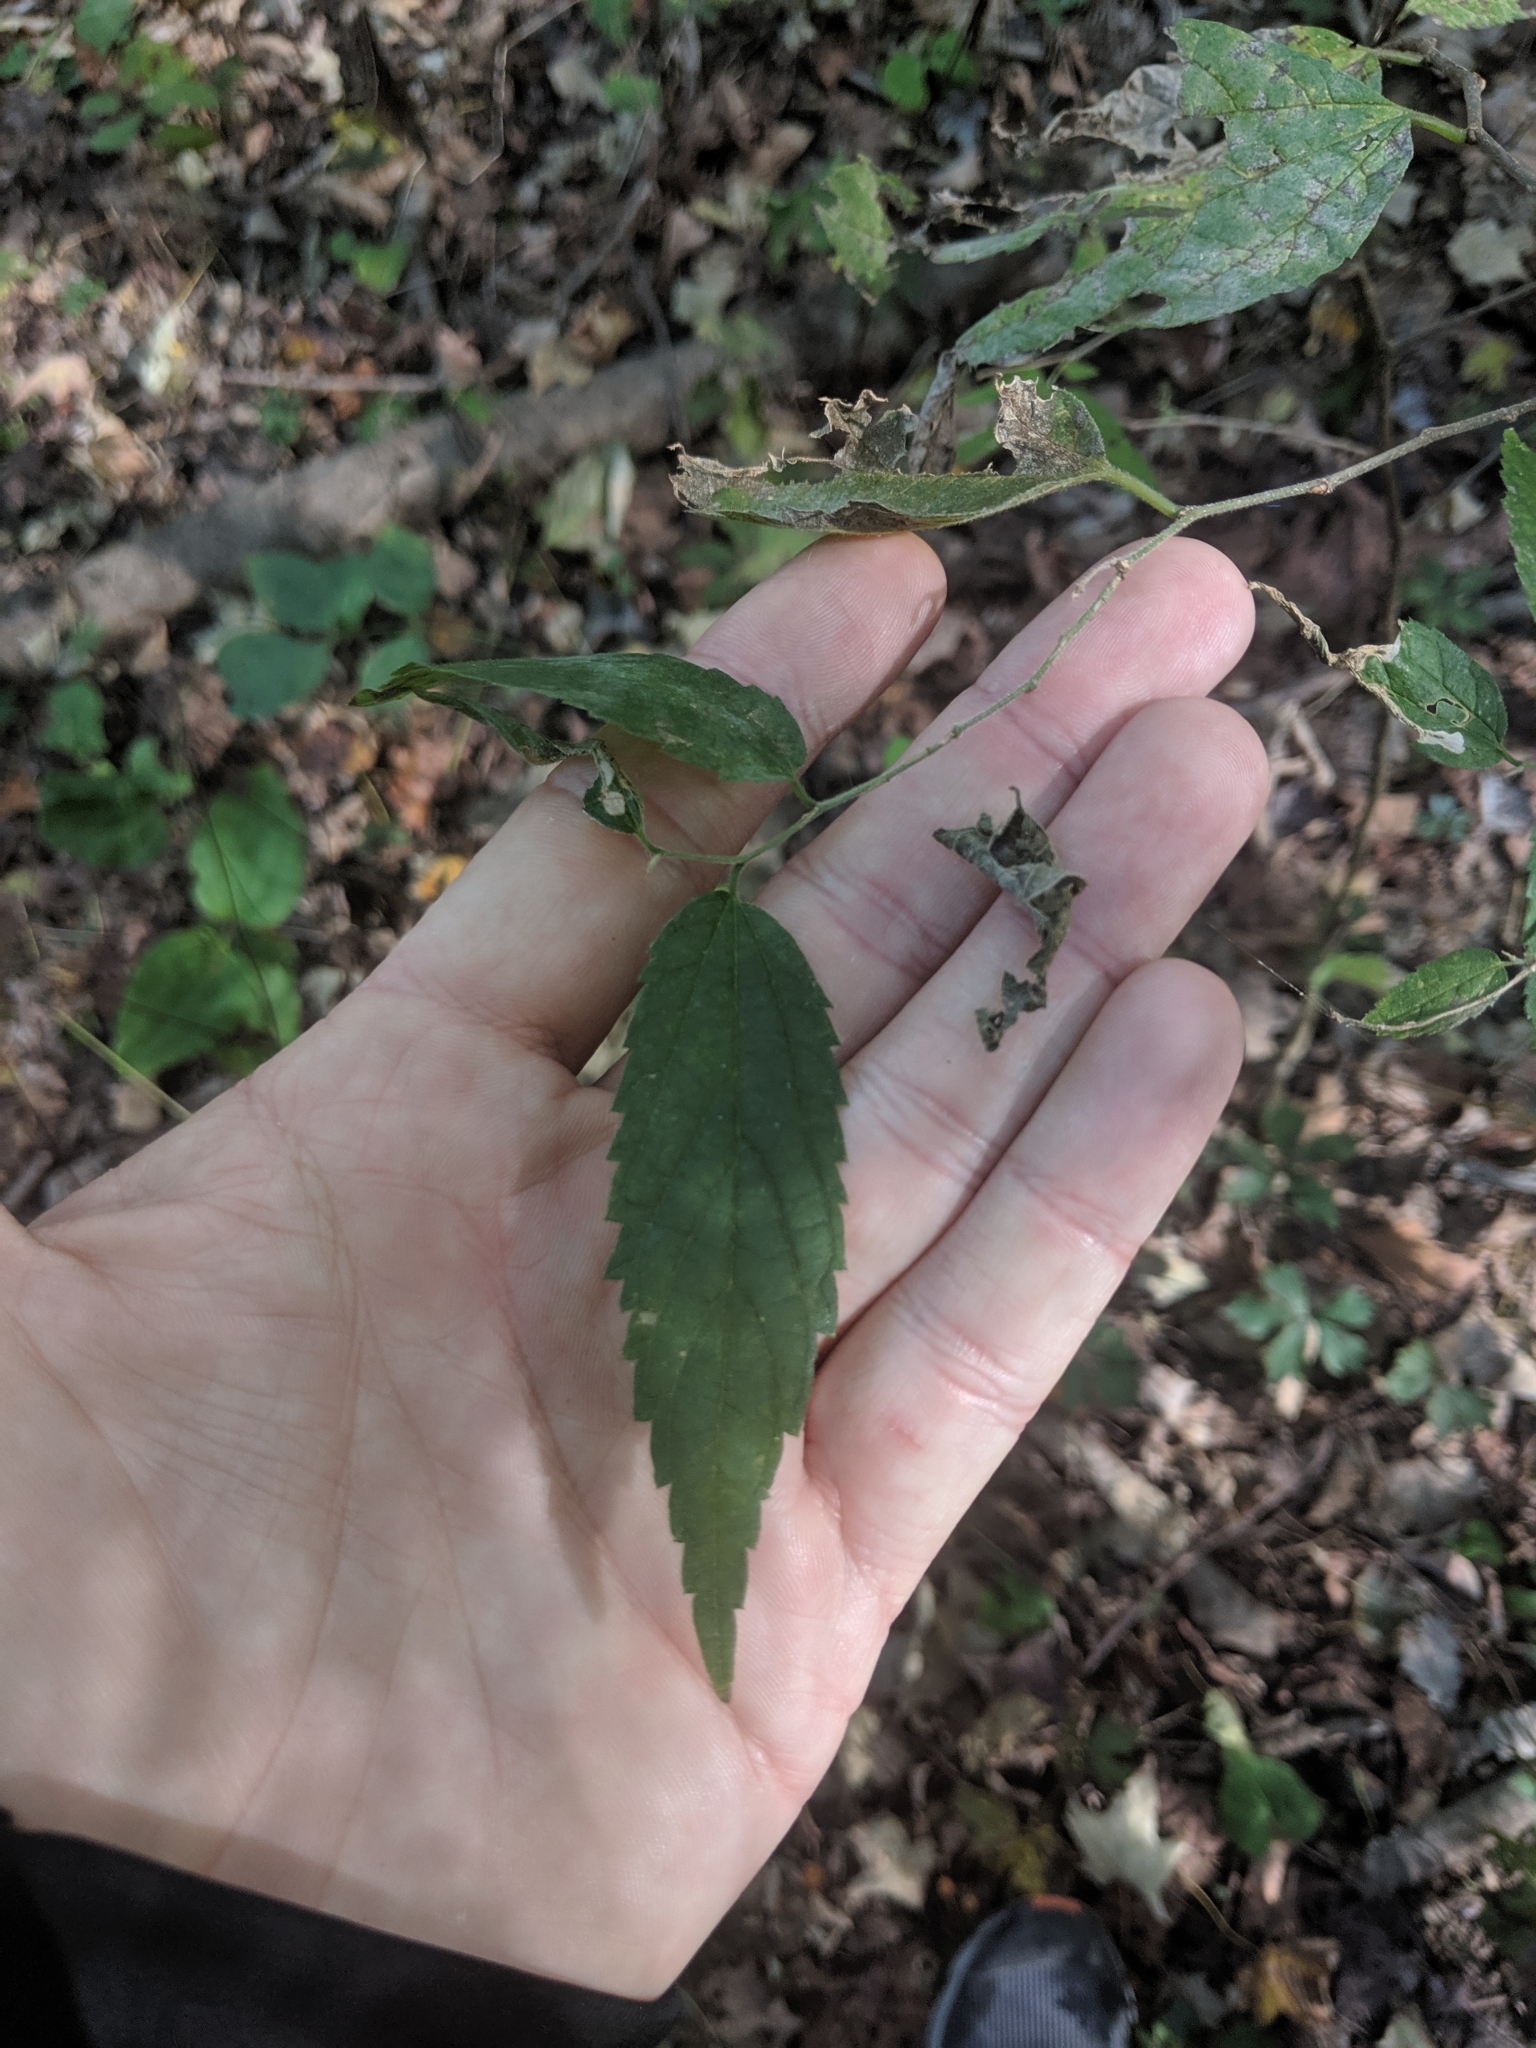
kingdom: Plantae
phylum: Tracheophyta
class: Magnoliopsida
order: Rosales
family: Cannabaceae
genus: Celtis
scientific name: Celtis occidentalis
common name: Common hackberry
